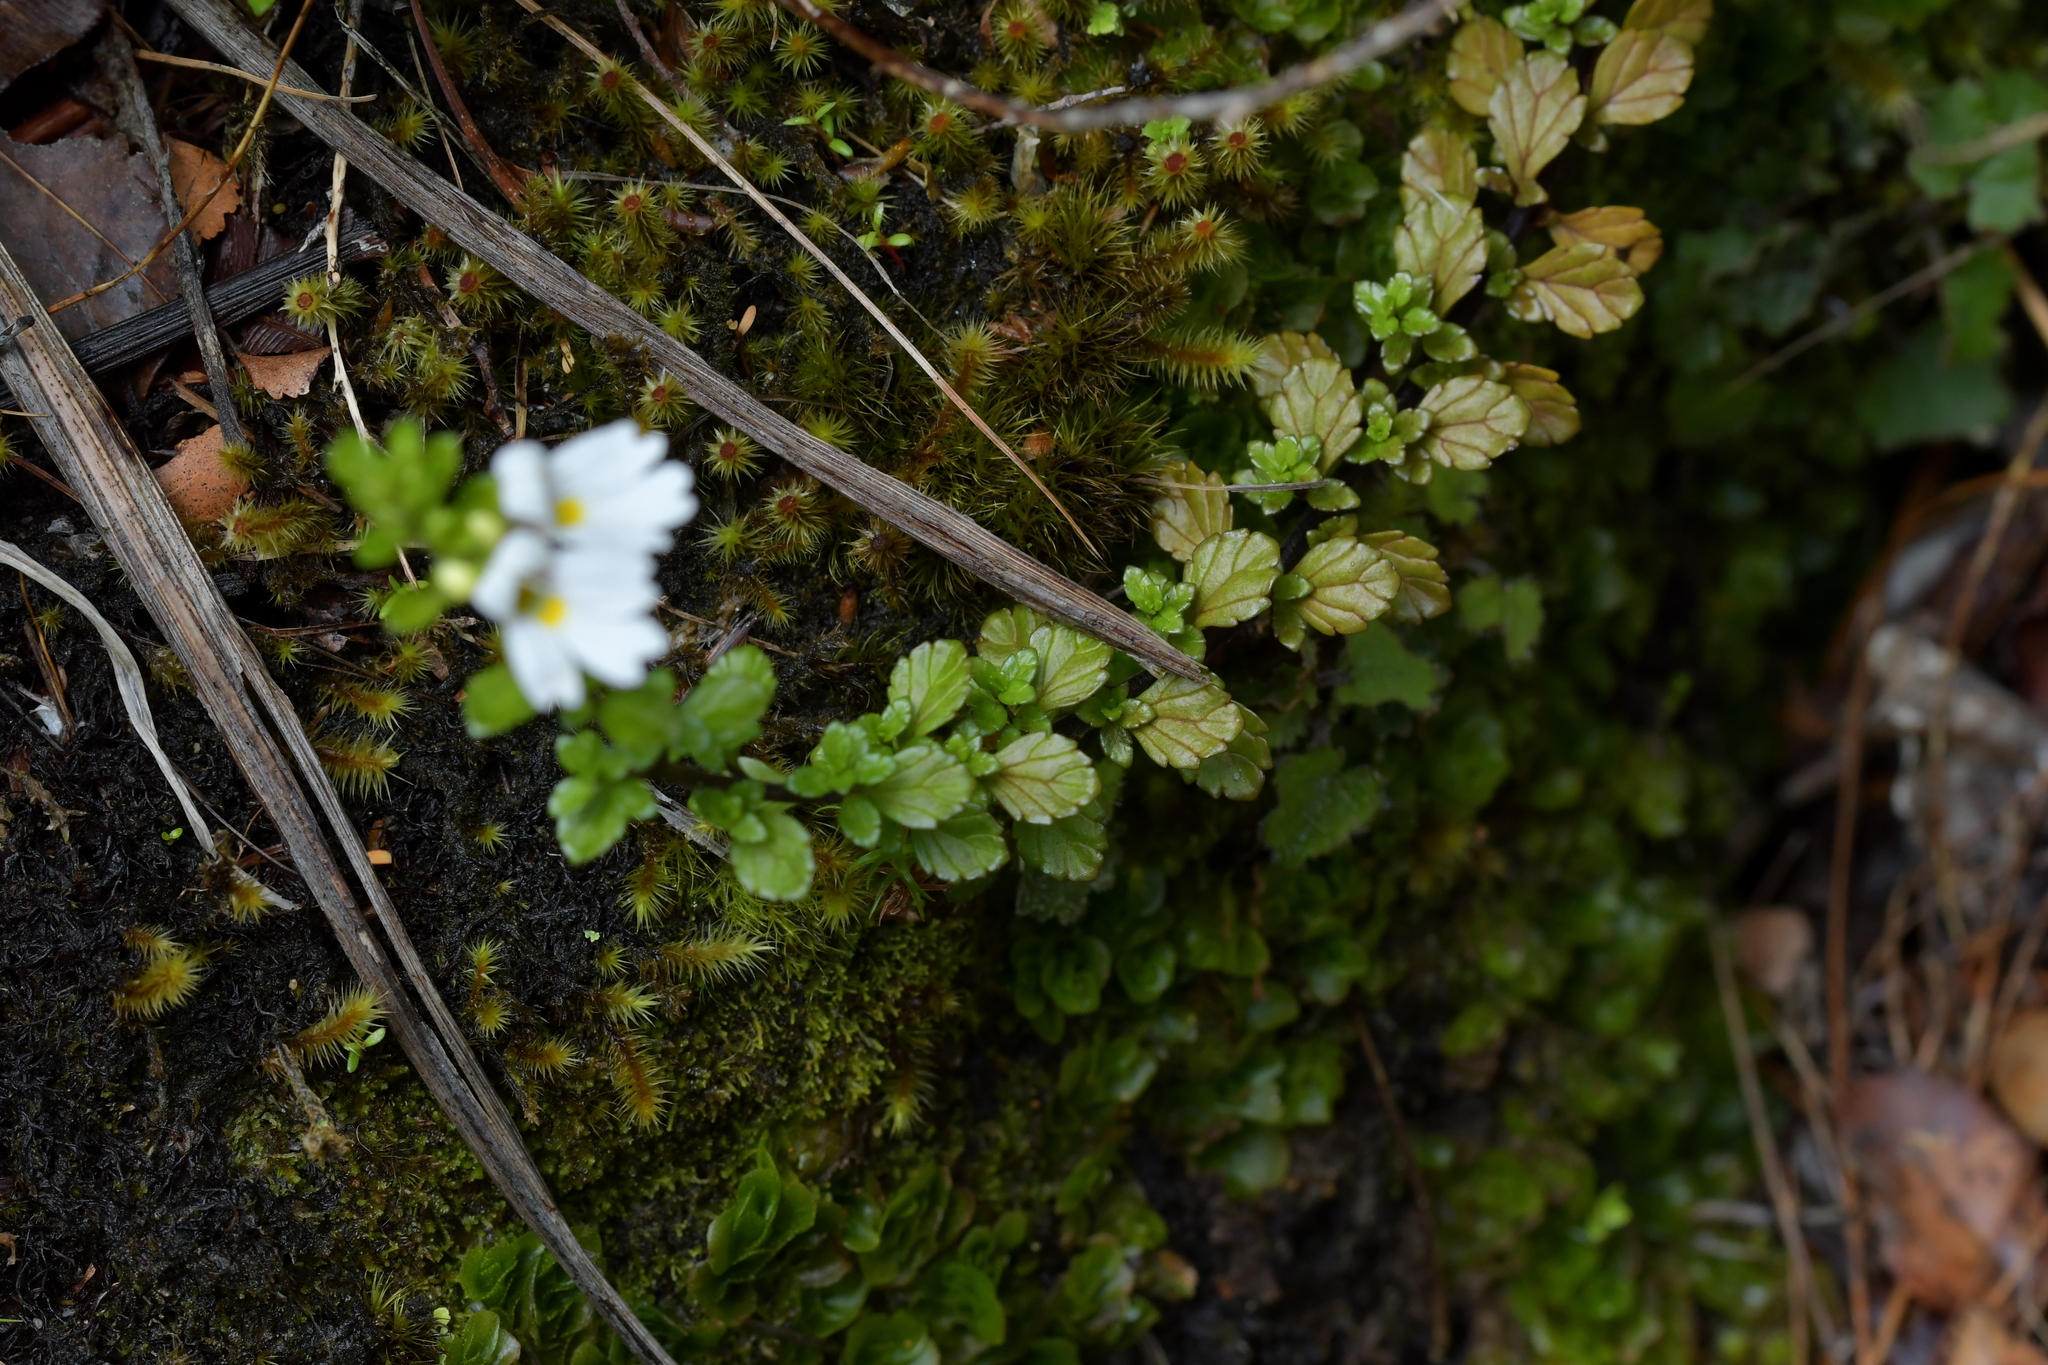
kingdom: Plantae
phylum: Tracheophyta
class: Magnoliopsida
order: Lamiales
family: Orobanchaceae
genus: Euphrasia
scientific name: Euphrasia cuneata
